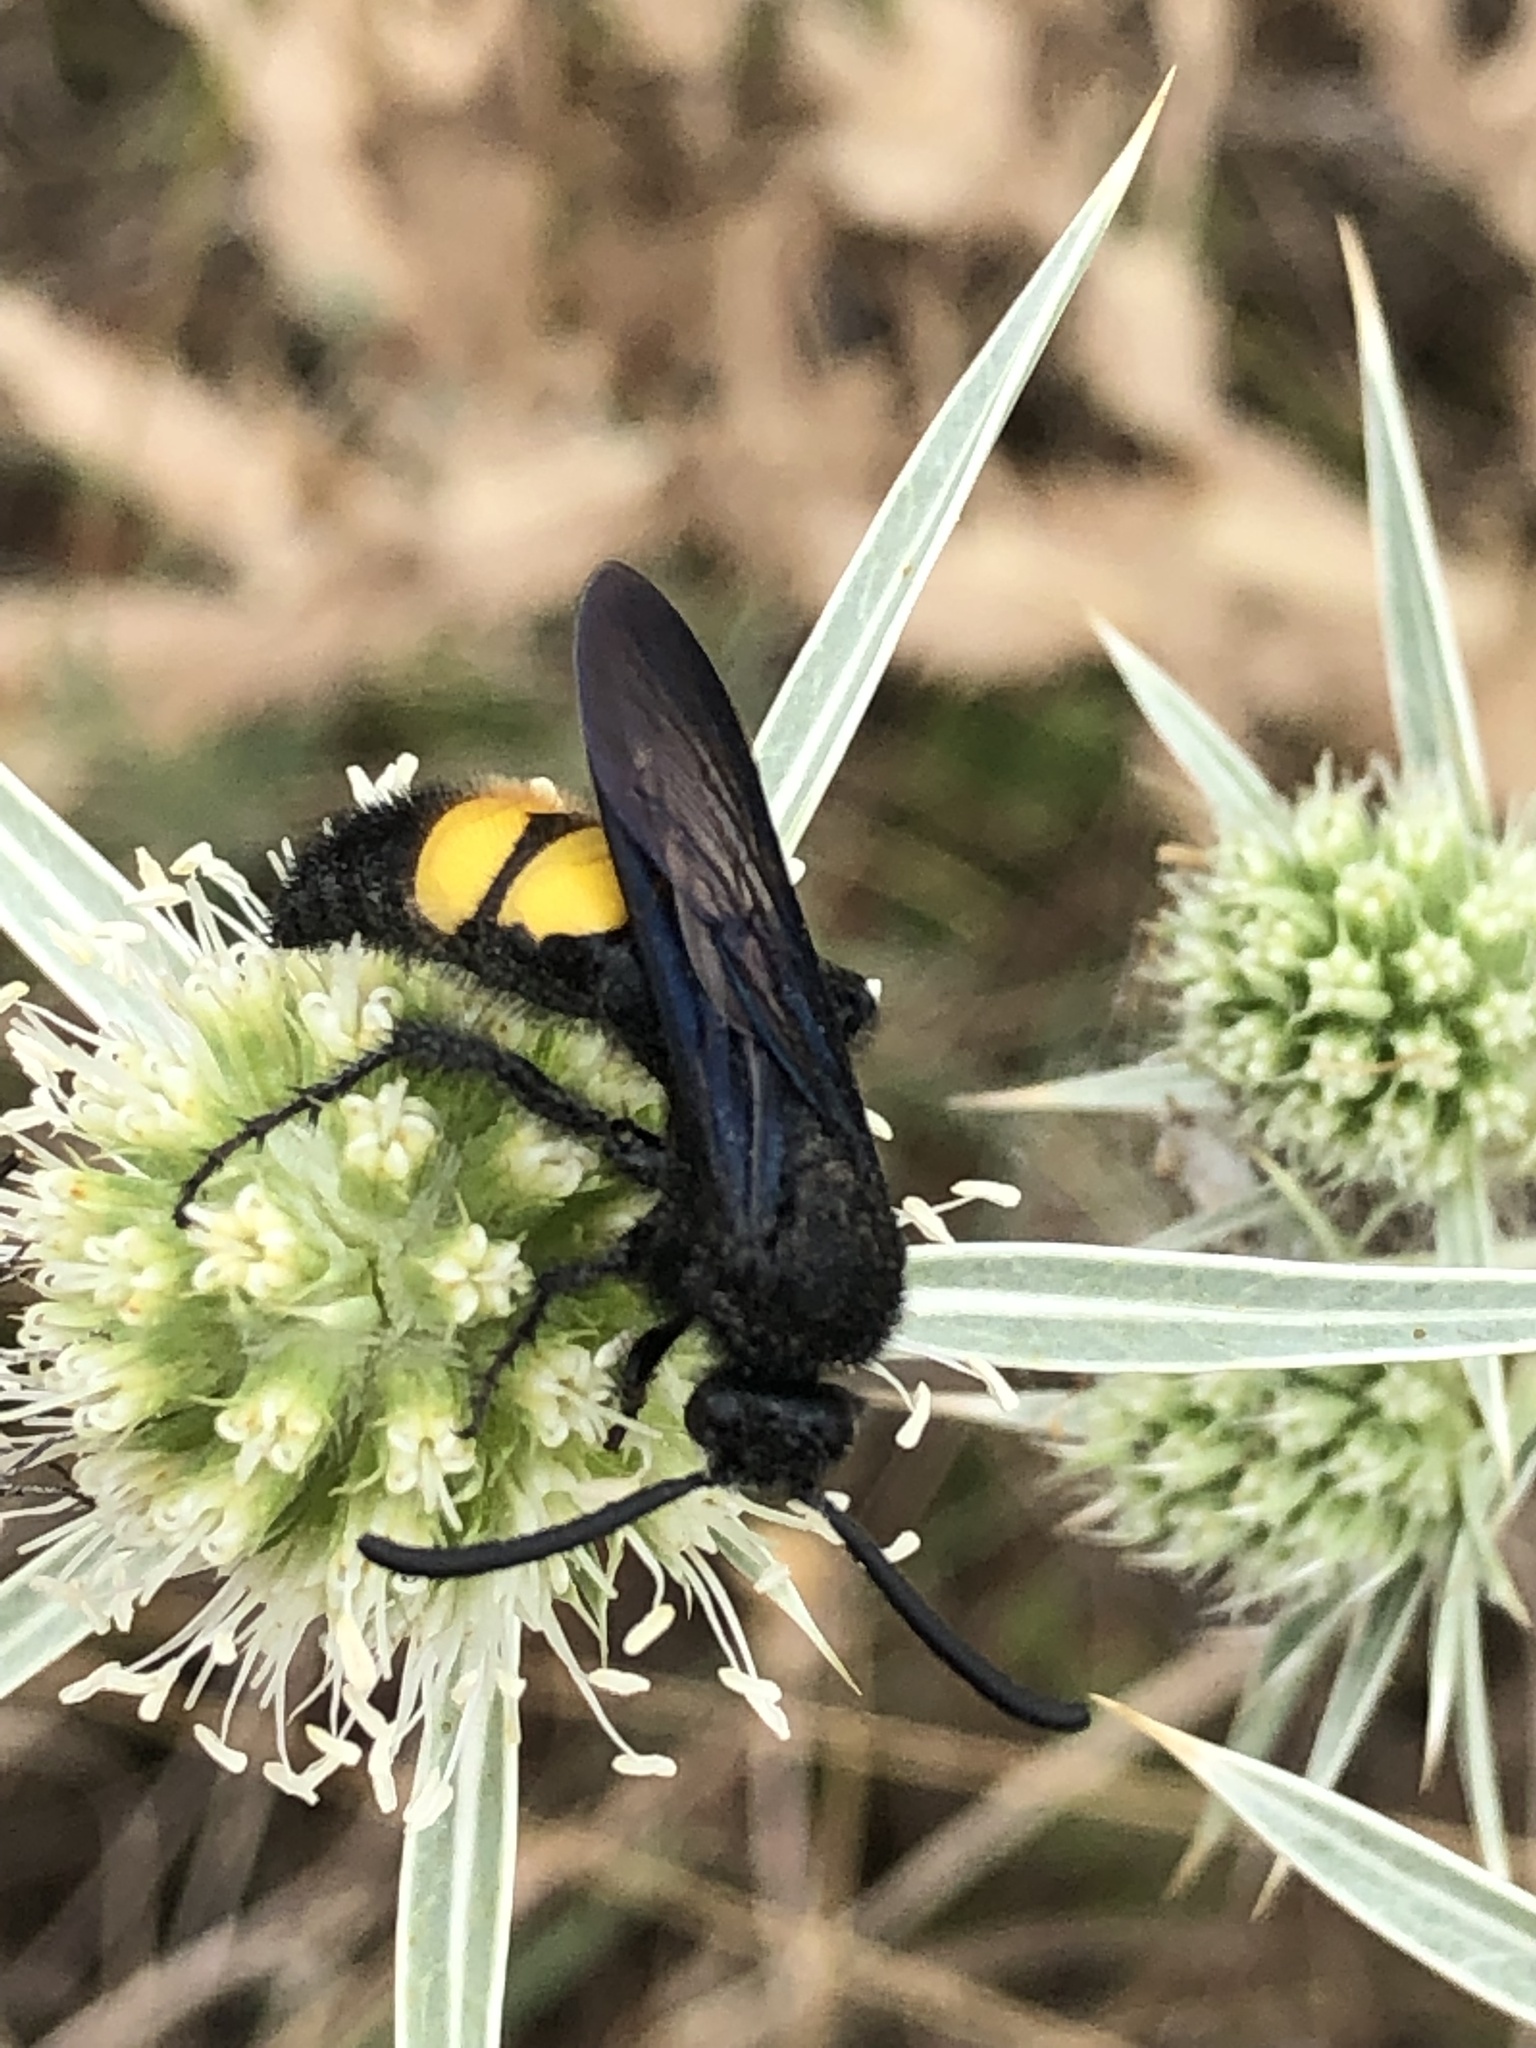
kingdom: Animalia
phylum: Arthropoda
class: Insecta
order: Hymenoptera
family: Scoliidae
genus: Scolia
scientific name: Scolia hirta
